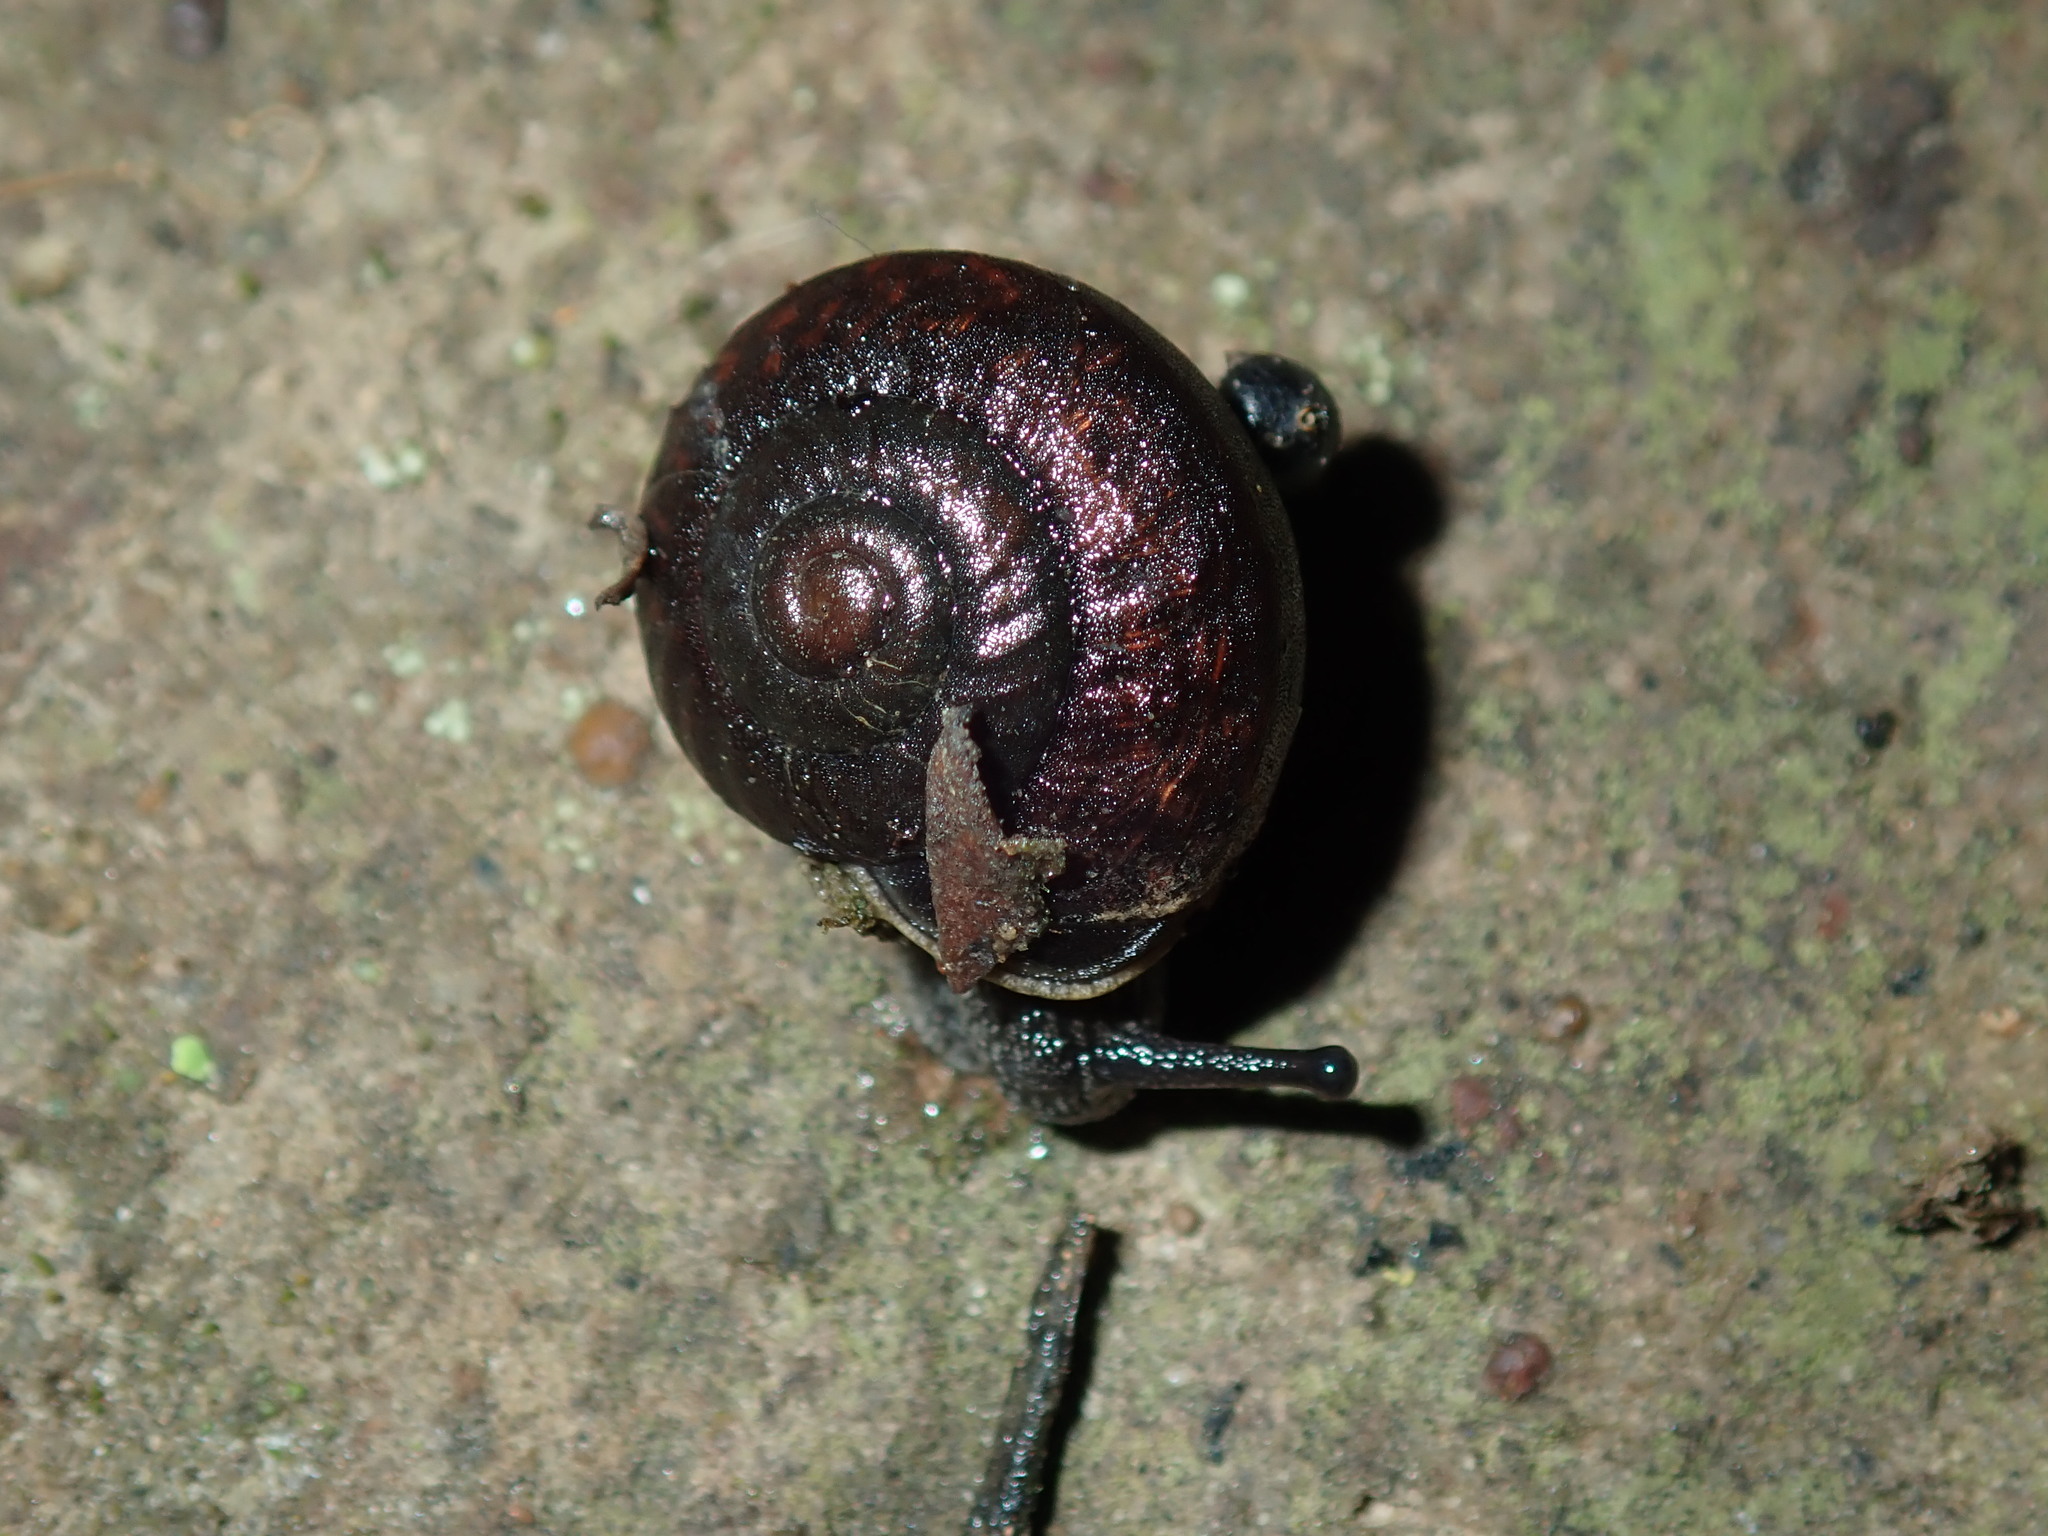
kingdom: Animalia
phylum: Mollusca
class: Gastropoda
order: Stylommatophora
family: Camaenidae
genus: Sauroconcha
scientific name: Sauroconcha sheai
